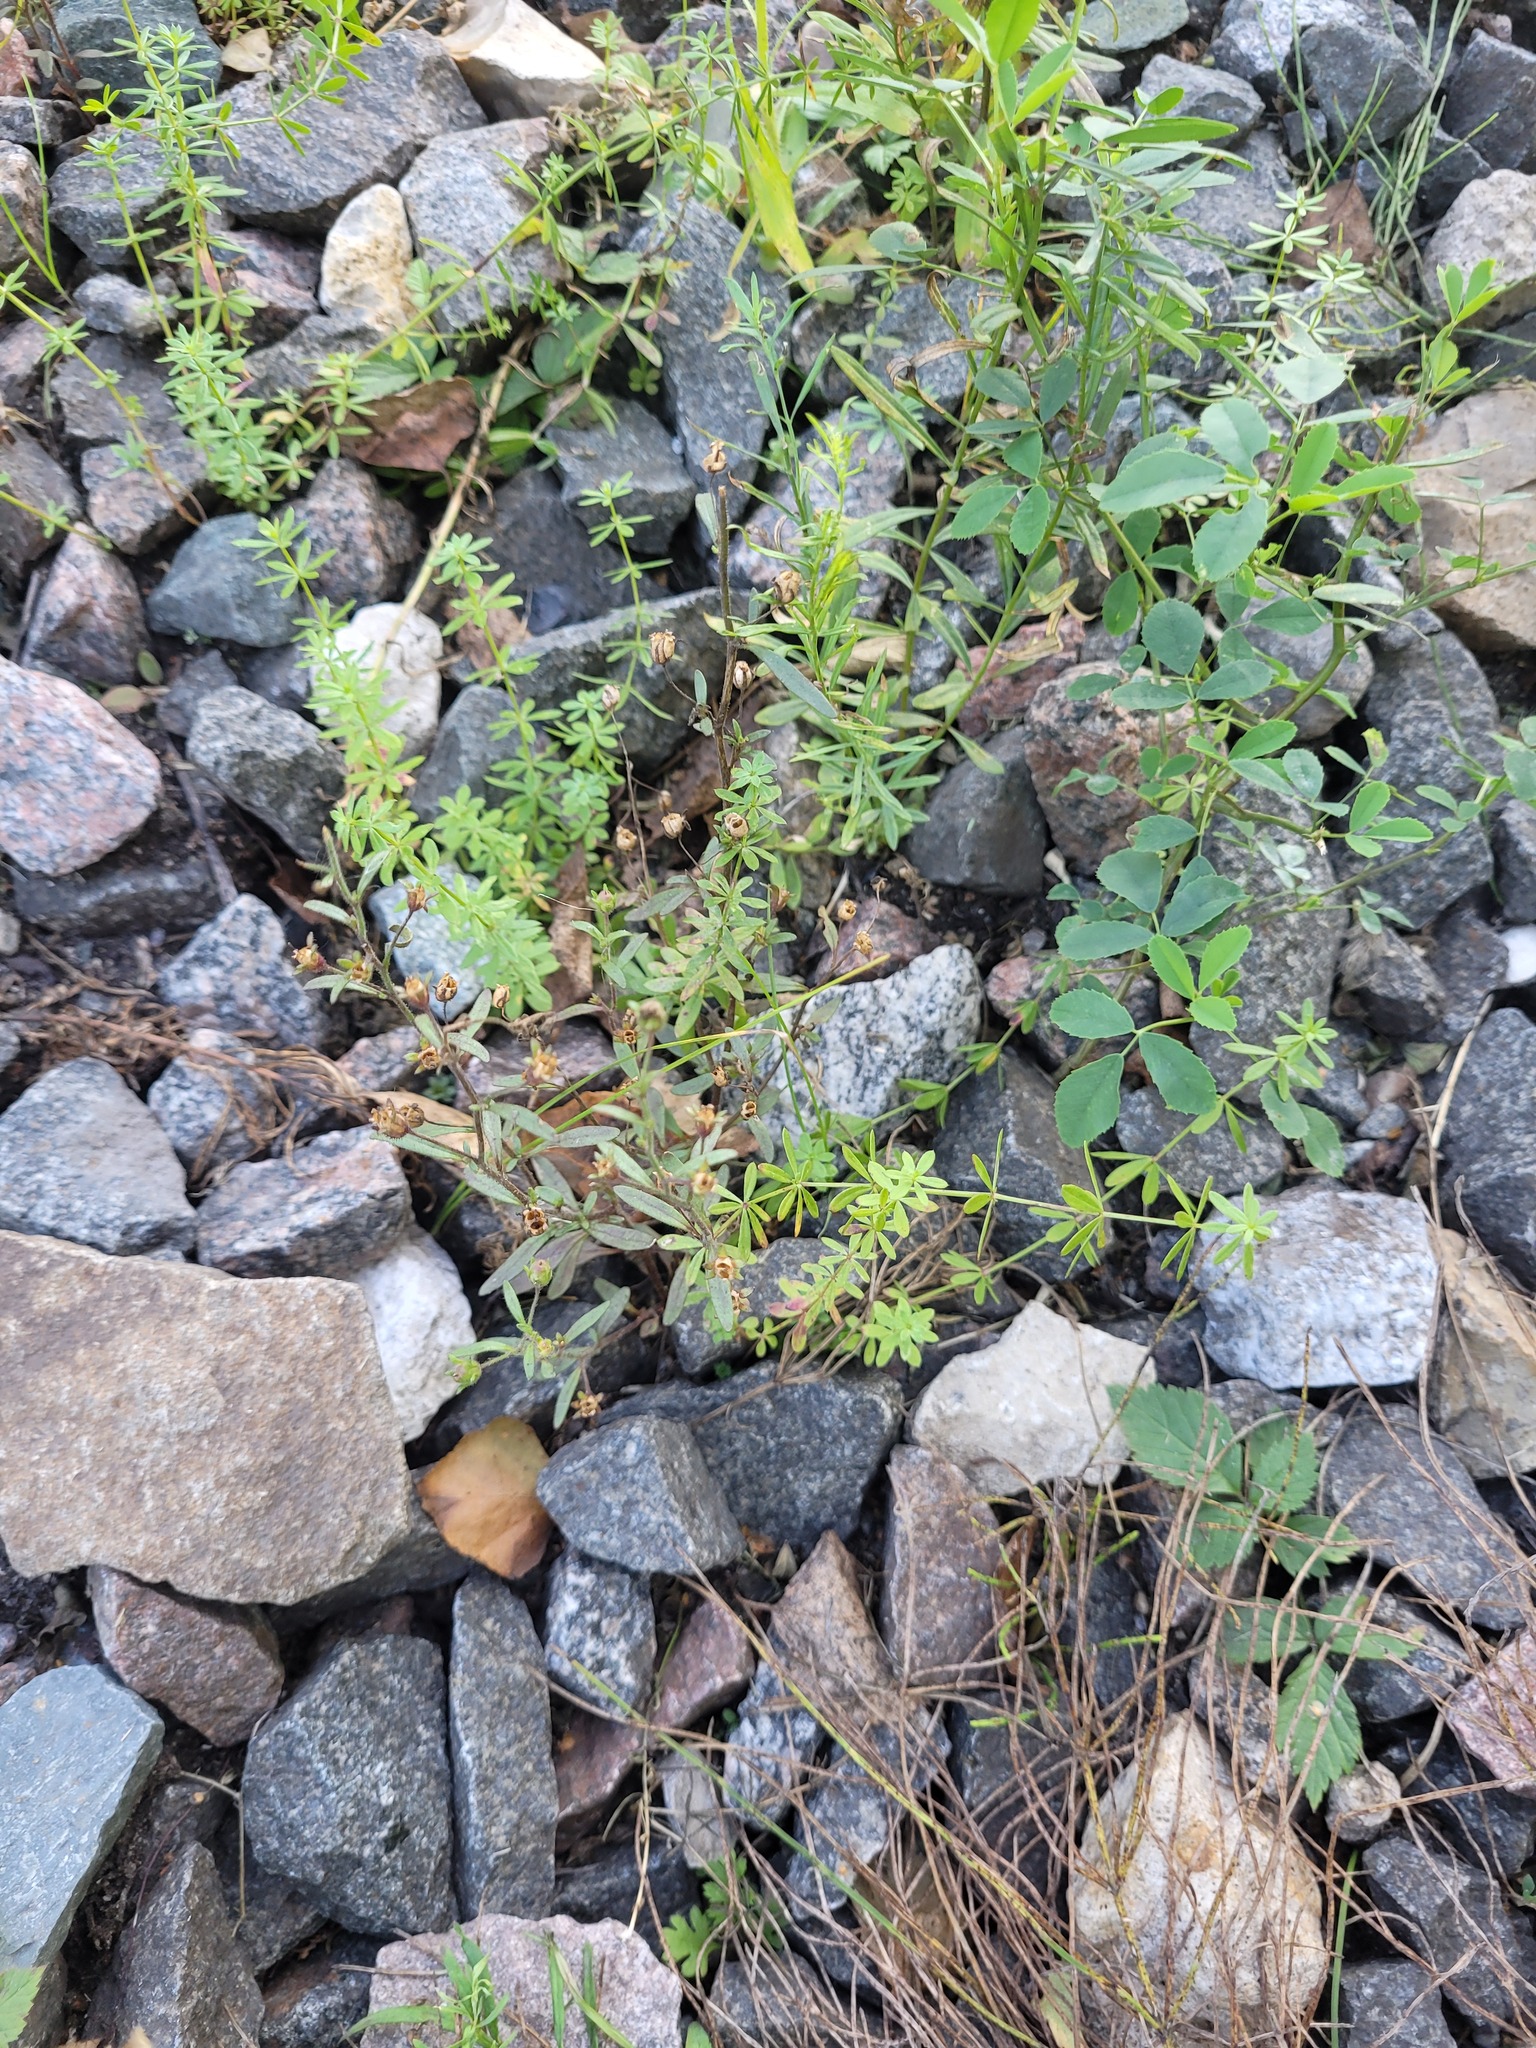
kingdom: Plantae
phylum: Tracheophyta
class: Magnoliopsida
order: Lamiales
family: Plantaginaceae
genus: Chaenorhinum
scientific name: Chaenorhinum minus
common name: Dwarf snapdragon
